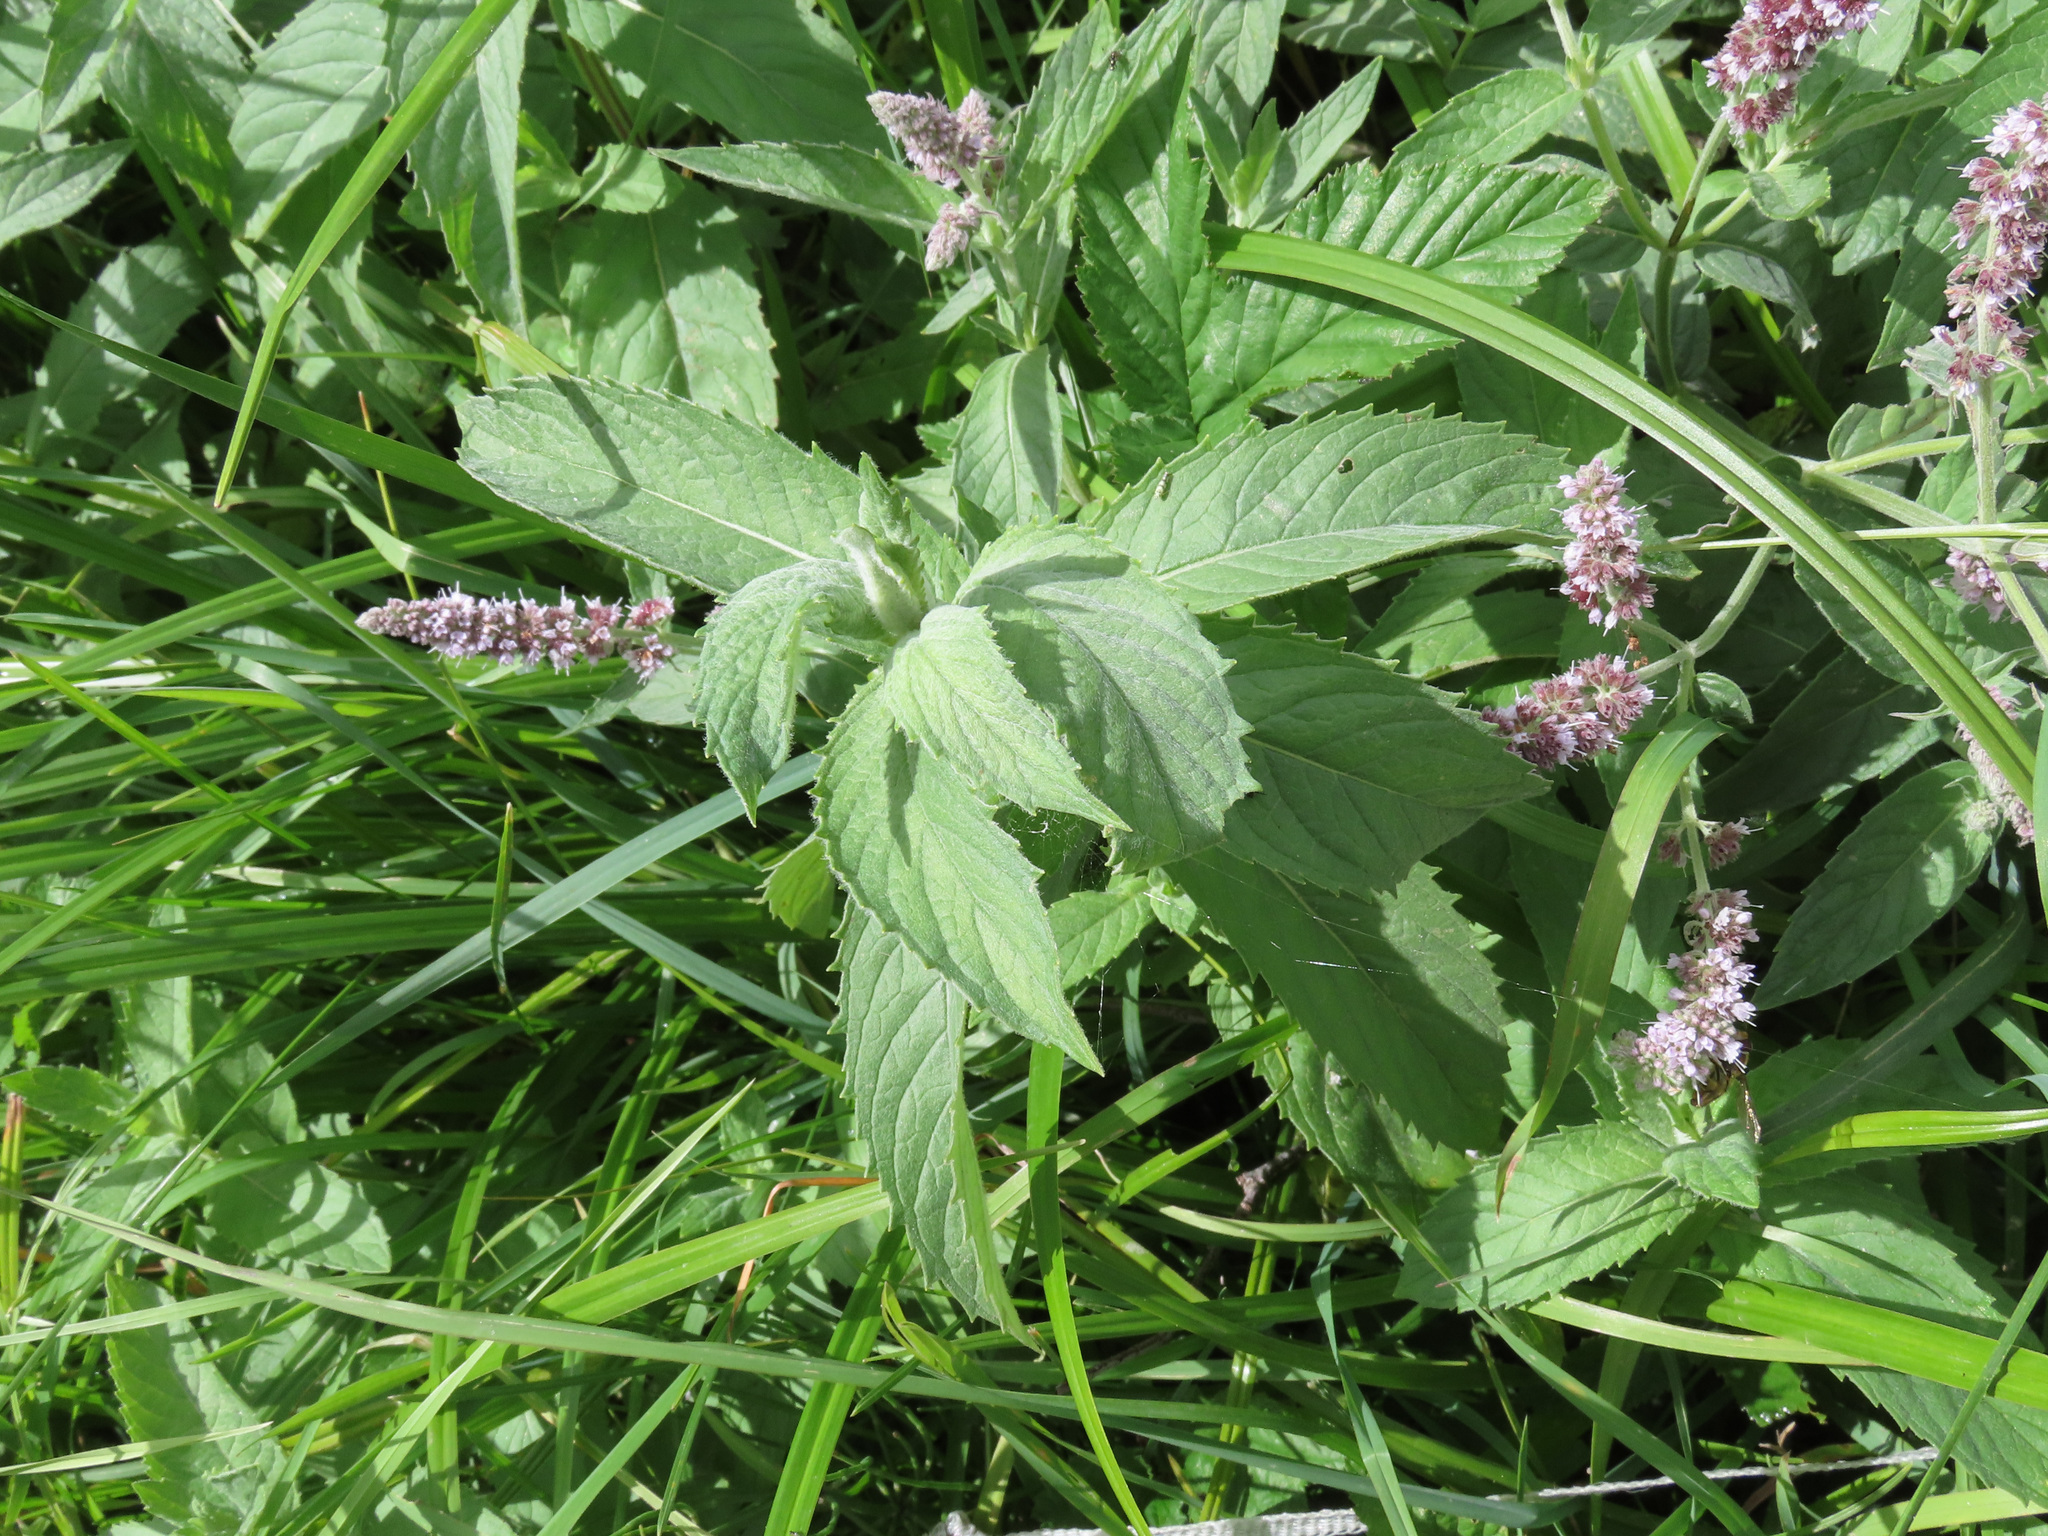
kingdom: Plantae
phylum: Tracheophyta
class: Magnoliopsida
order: Lamiales
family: Lamiaceae
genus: Mentha
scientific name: Mentha longifolia
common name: Horse mint
